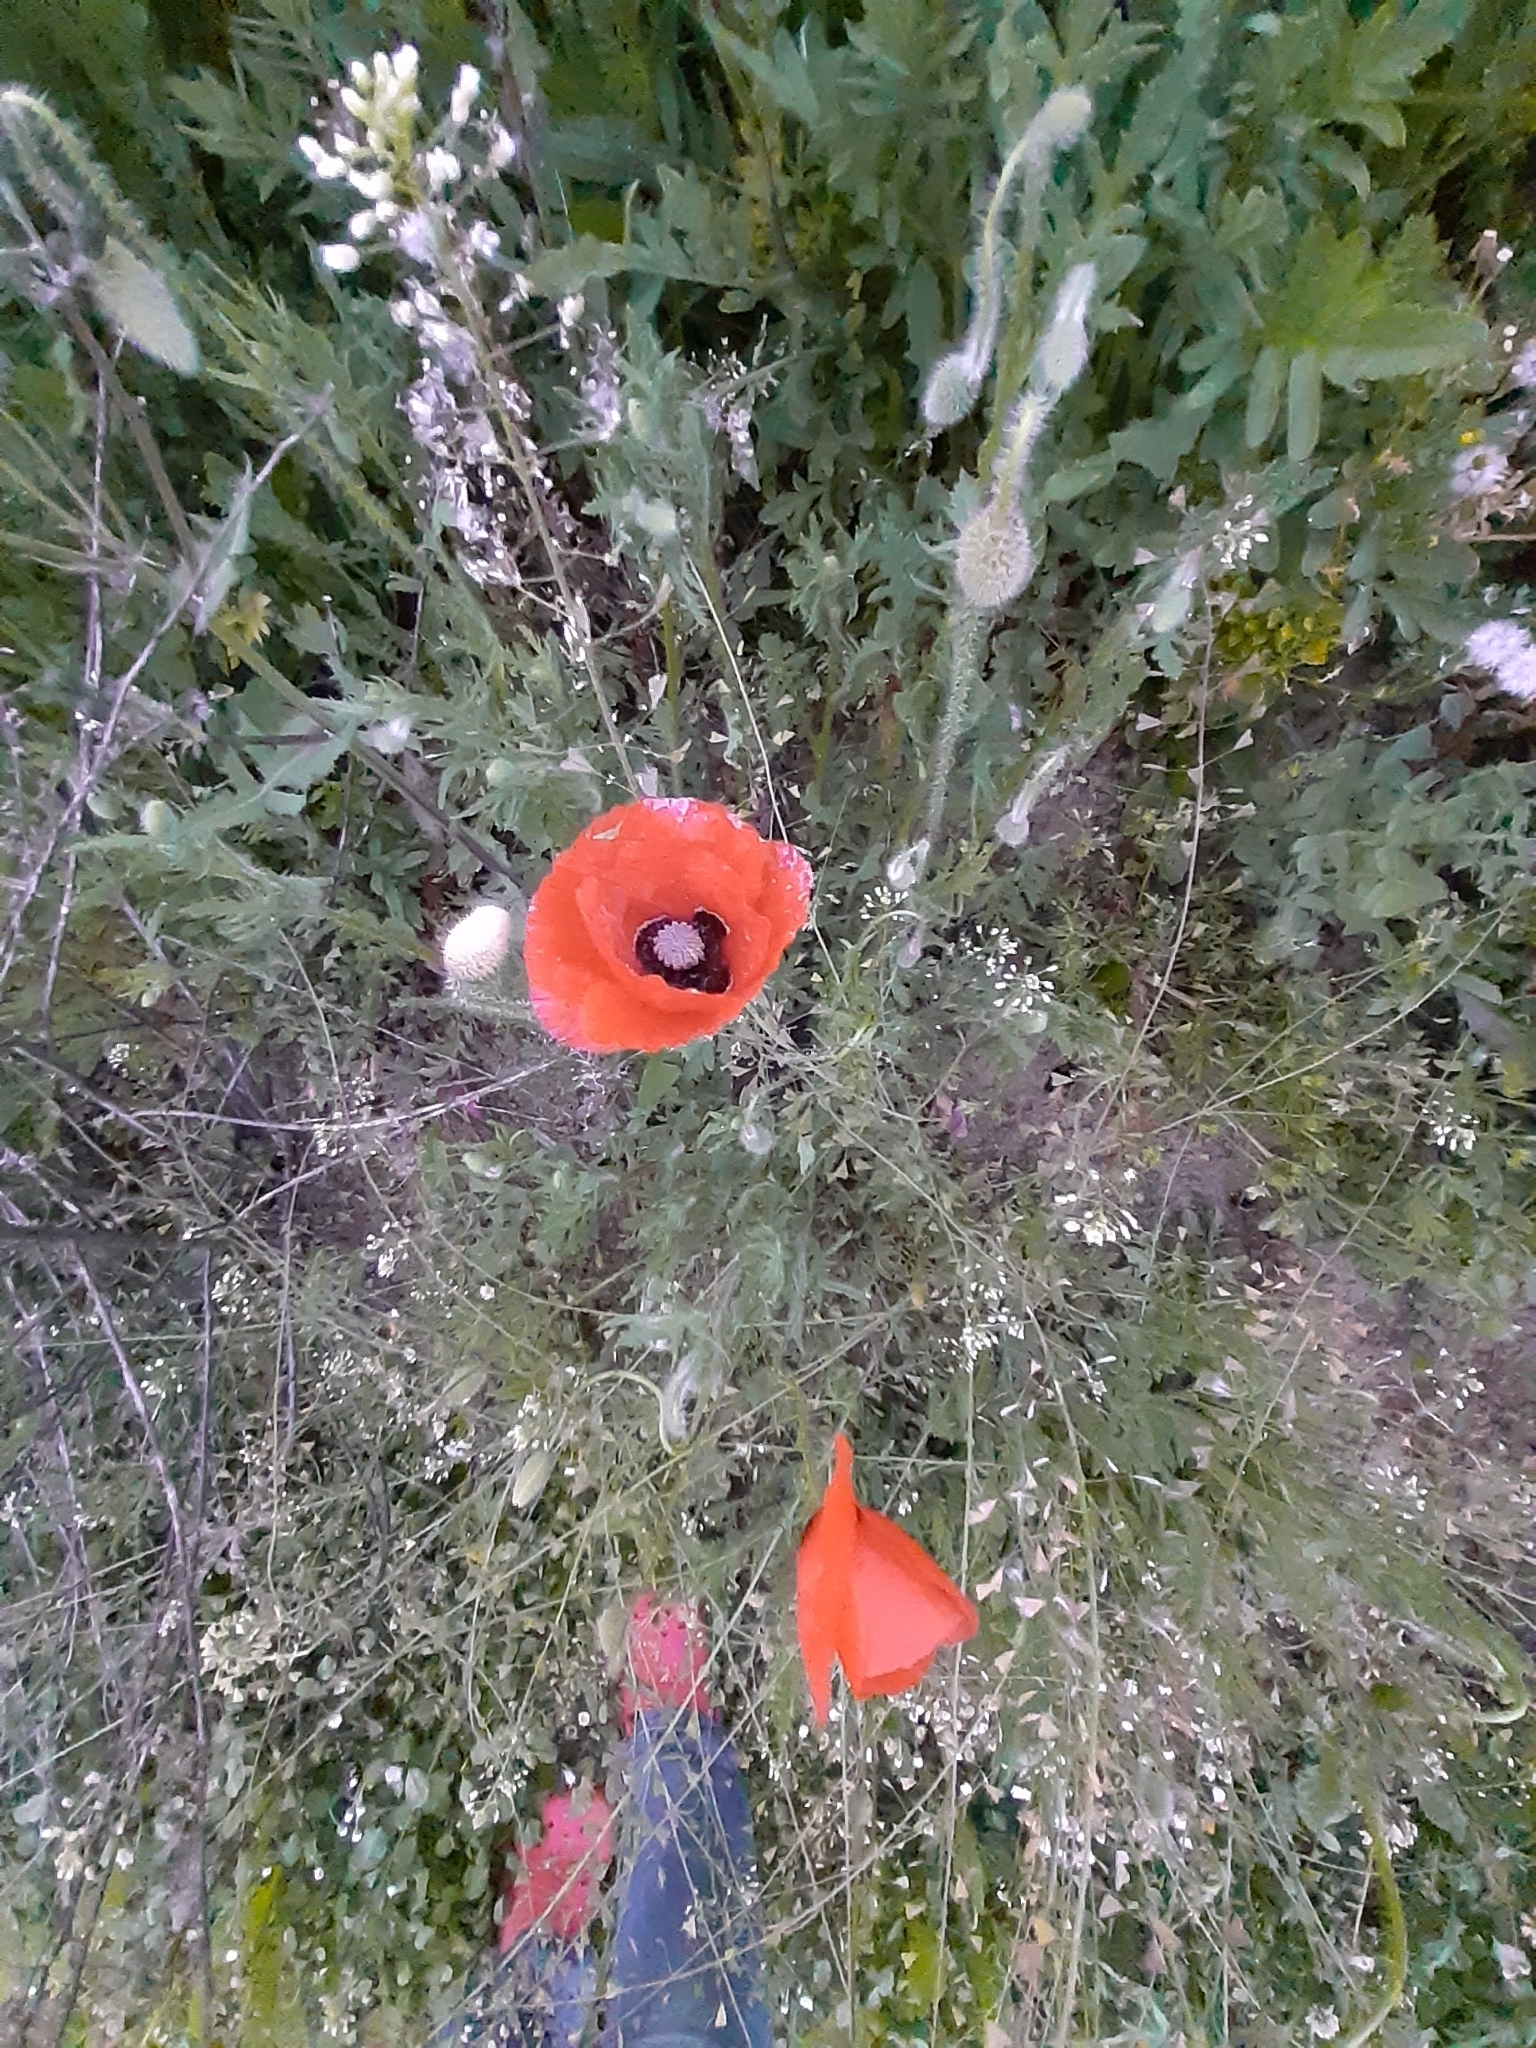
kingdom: Plantae
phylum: Tracheophyta
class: Magnoliopsida
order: Ranunculales
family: Papaveraceae
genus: Papaver
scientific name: Papaver rhoeas
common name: Corn poppy
